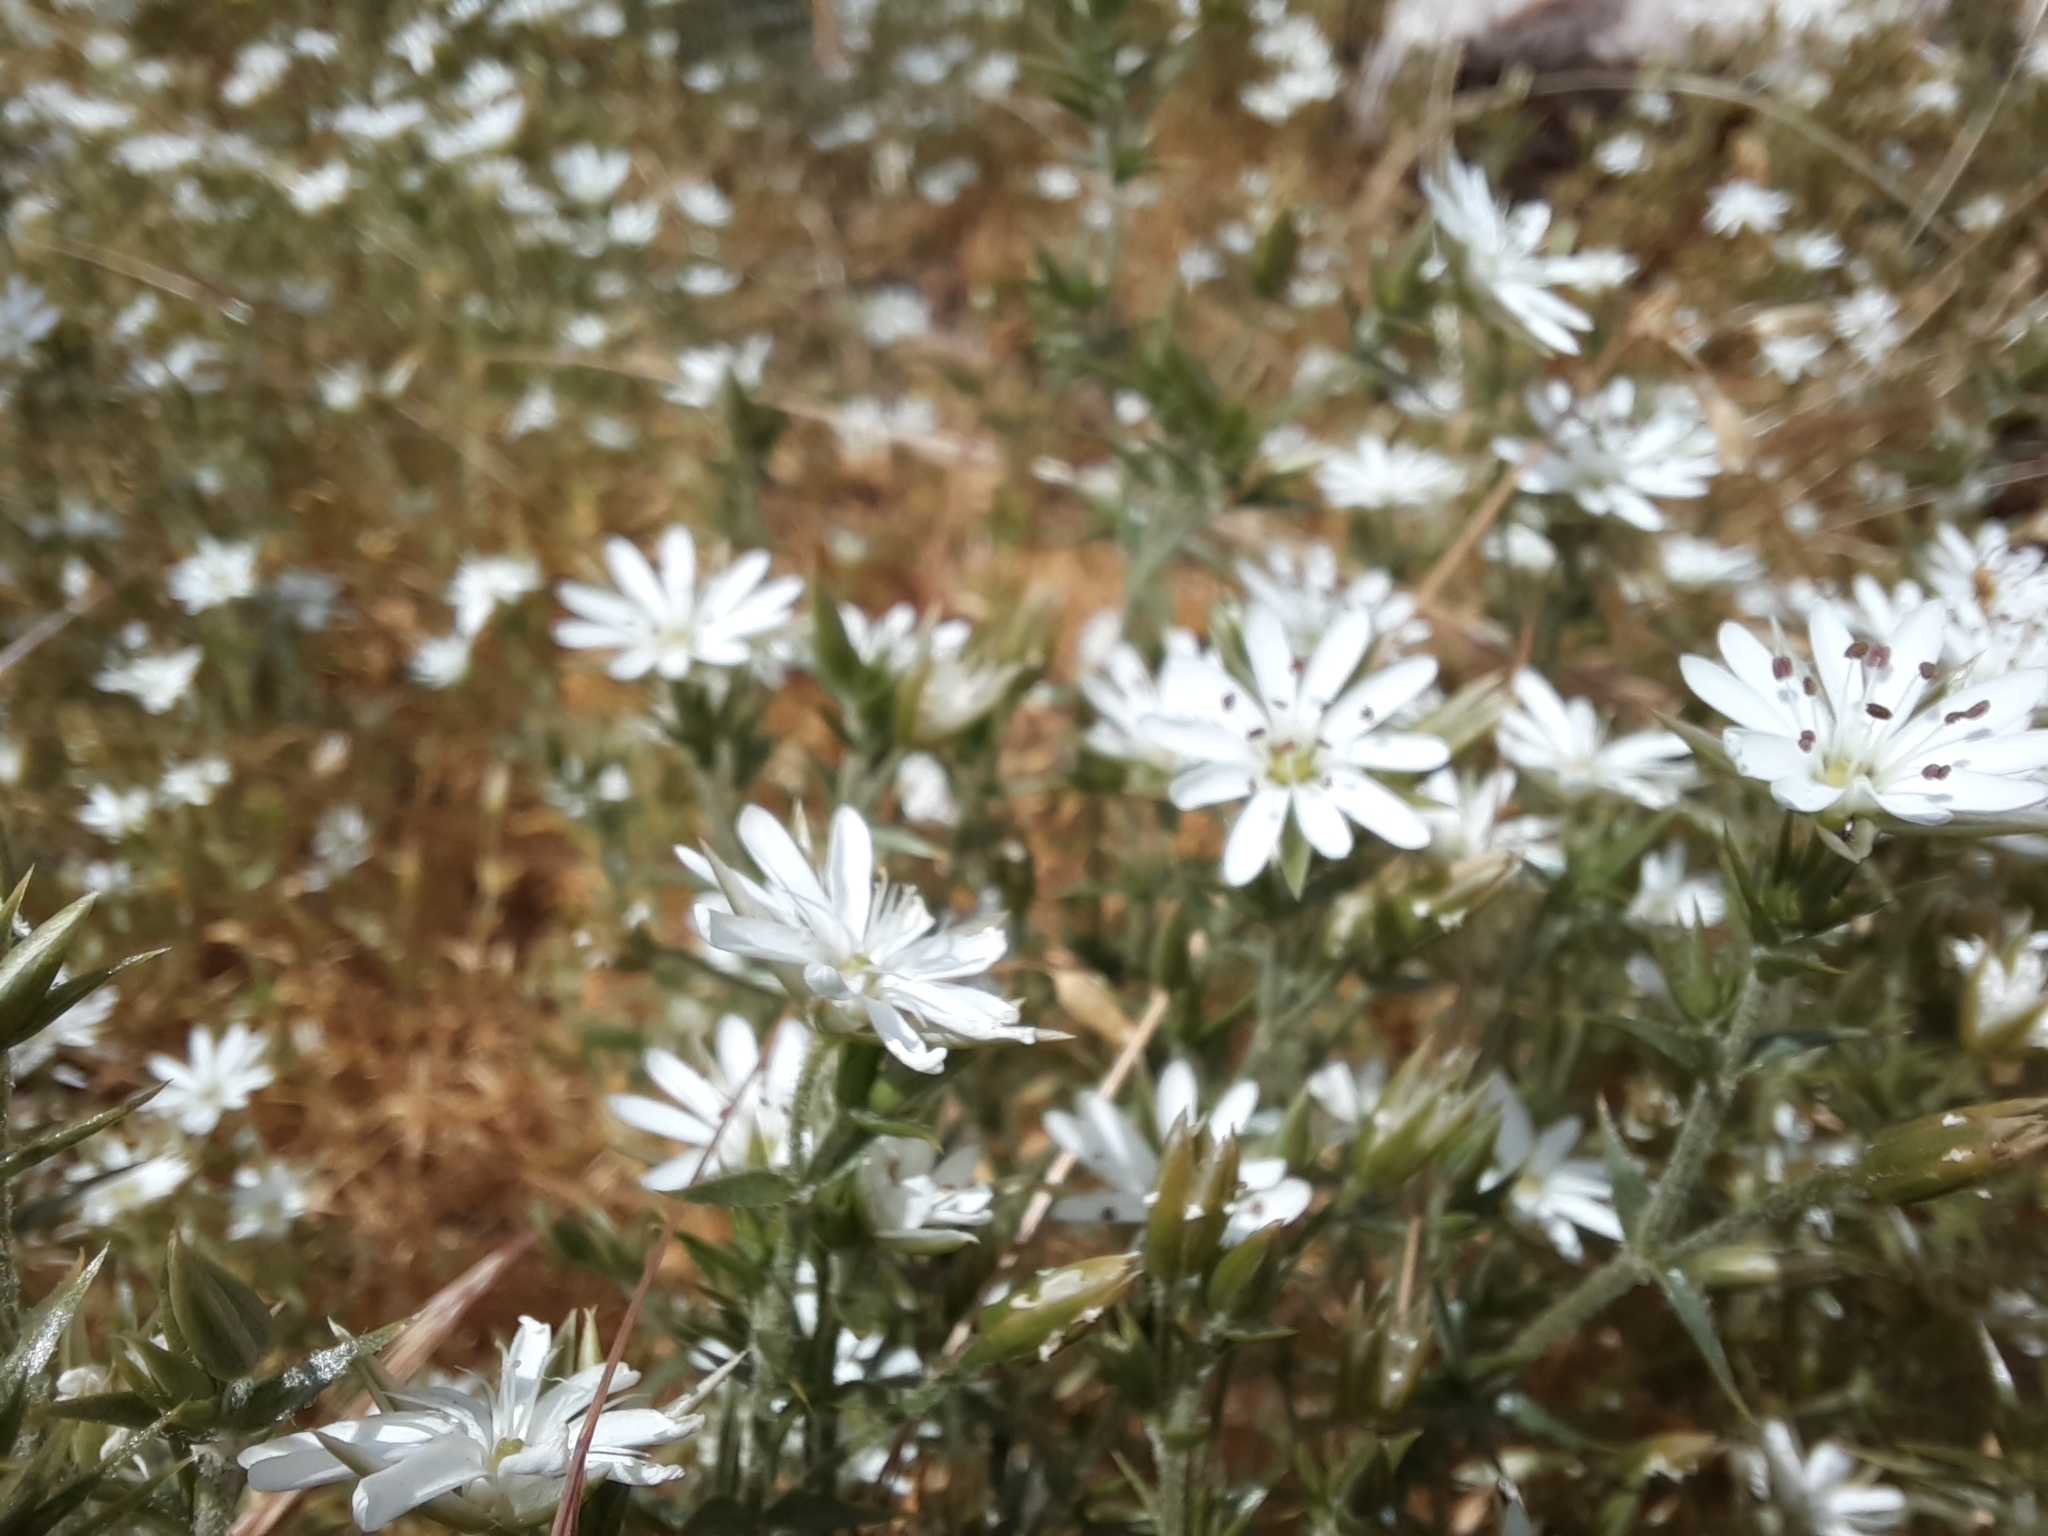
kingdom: Plantae
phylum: Tracheophyta
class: Magnoliopsida
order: Caryophyllales
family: Caryophyllaceae
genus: Stellaria
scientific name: Stellaria pungens
